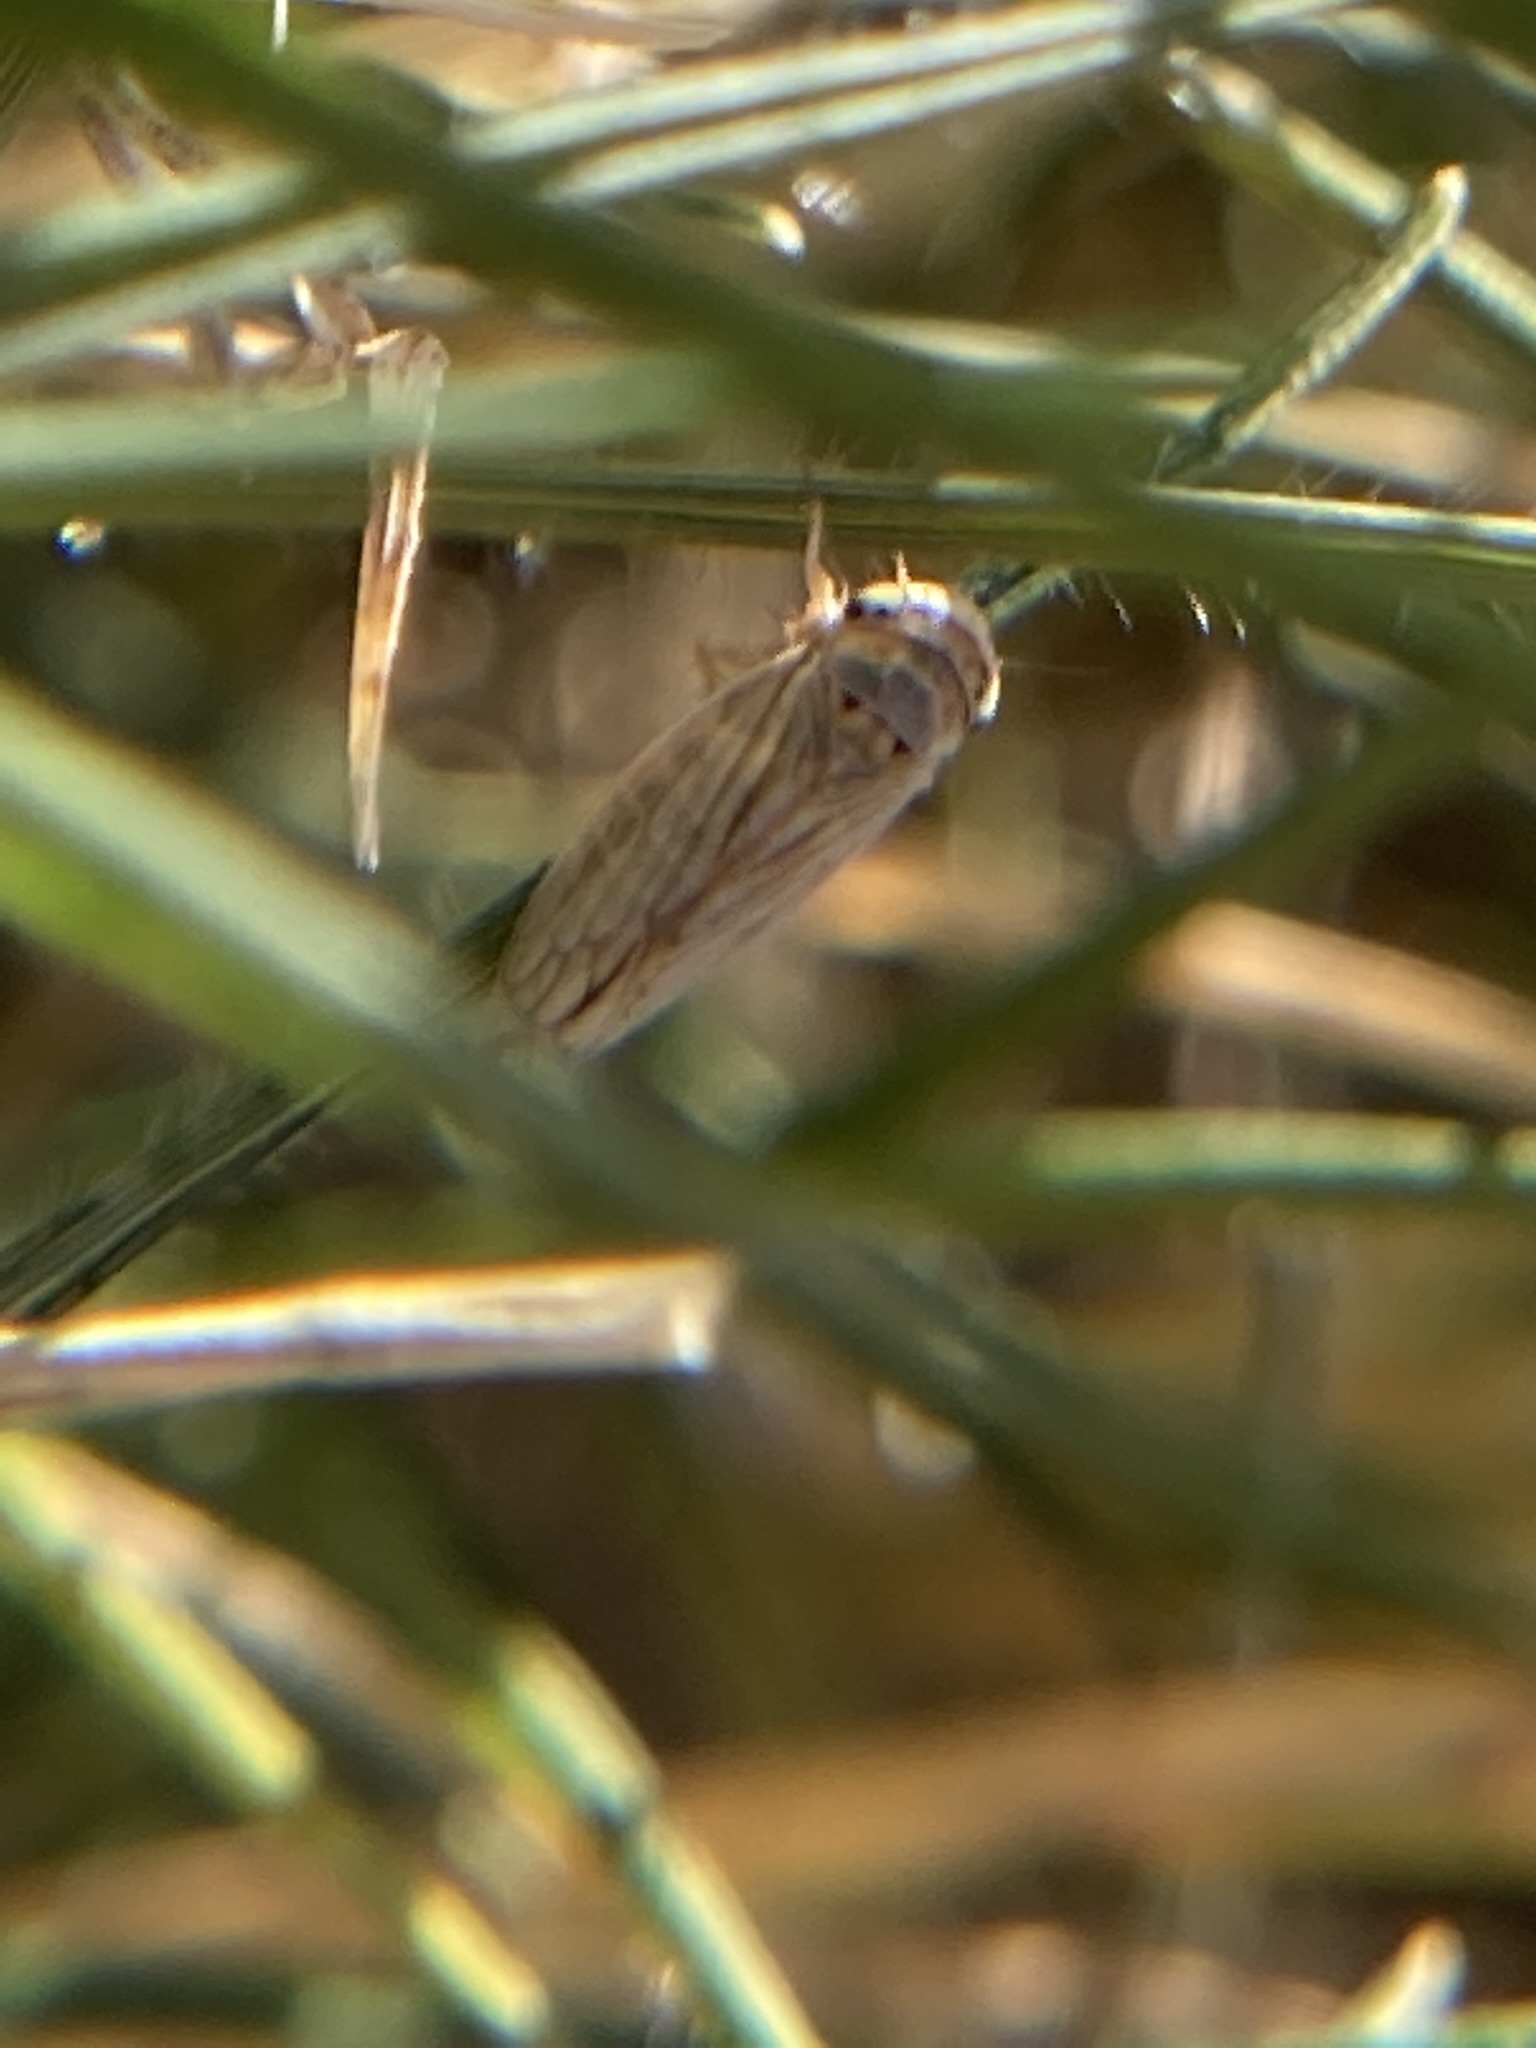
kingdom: Animalia
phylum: Arthropoda
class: Insecta
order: Hemiptera
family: Cicadellidae
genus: Exitianus
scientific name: Exitianus exitiosus
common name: Gray lawn leafhopper
